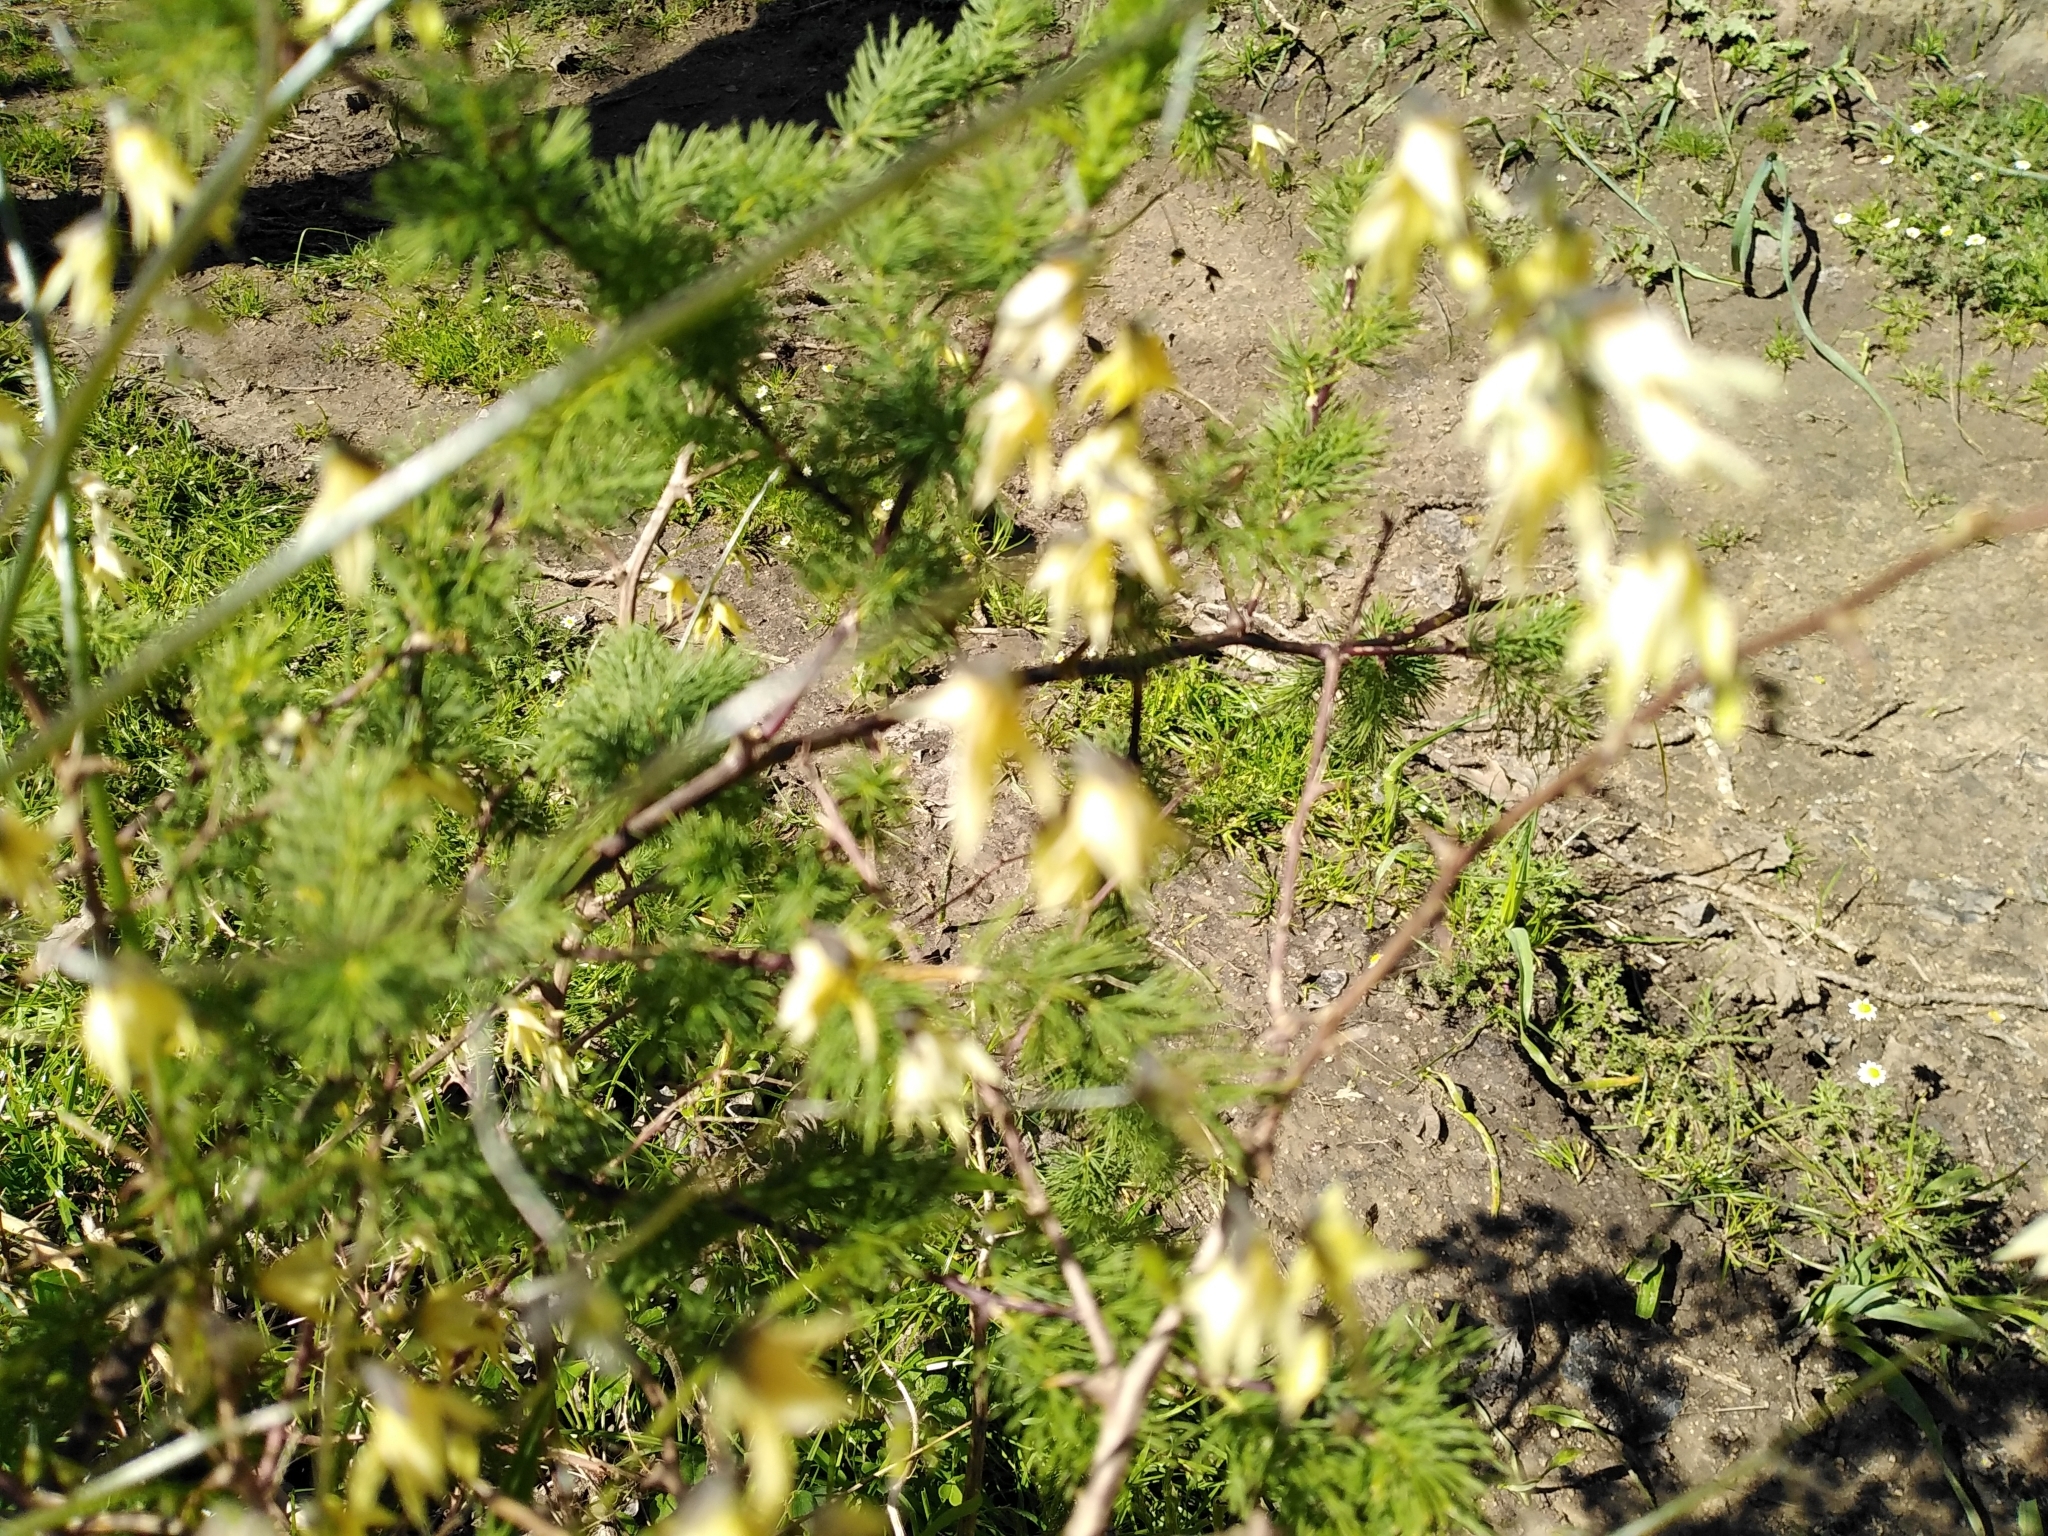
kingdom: Plantae
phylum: Tracheophyta
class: Liliopsida
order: Asparagales
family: Iridaceae
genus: Melasphaerula
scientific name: Melasphaerula graminea
